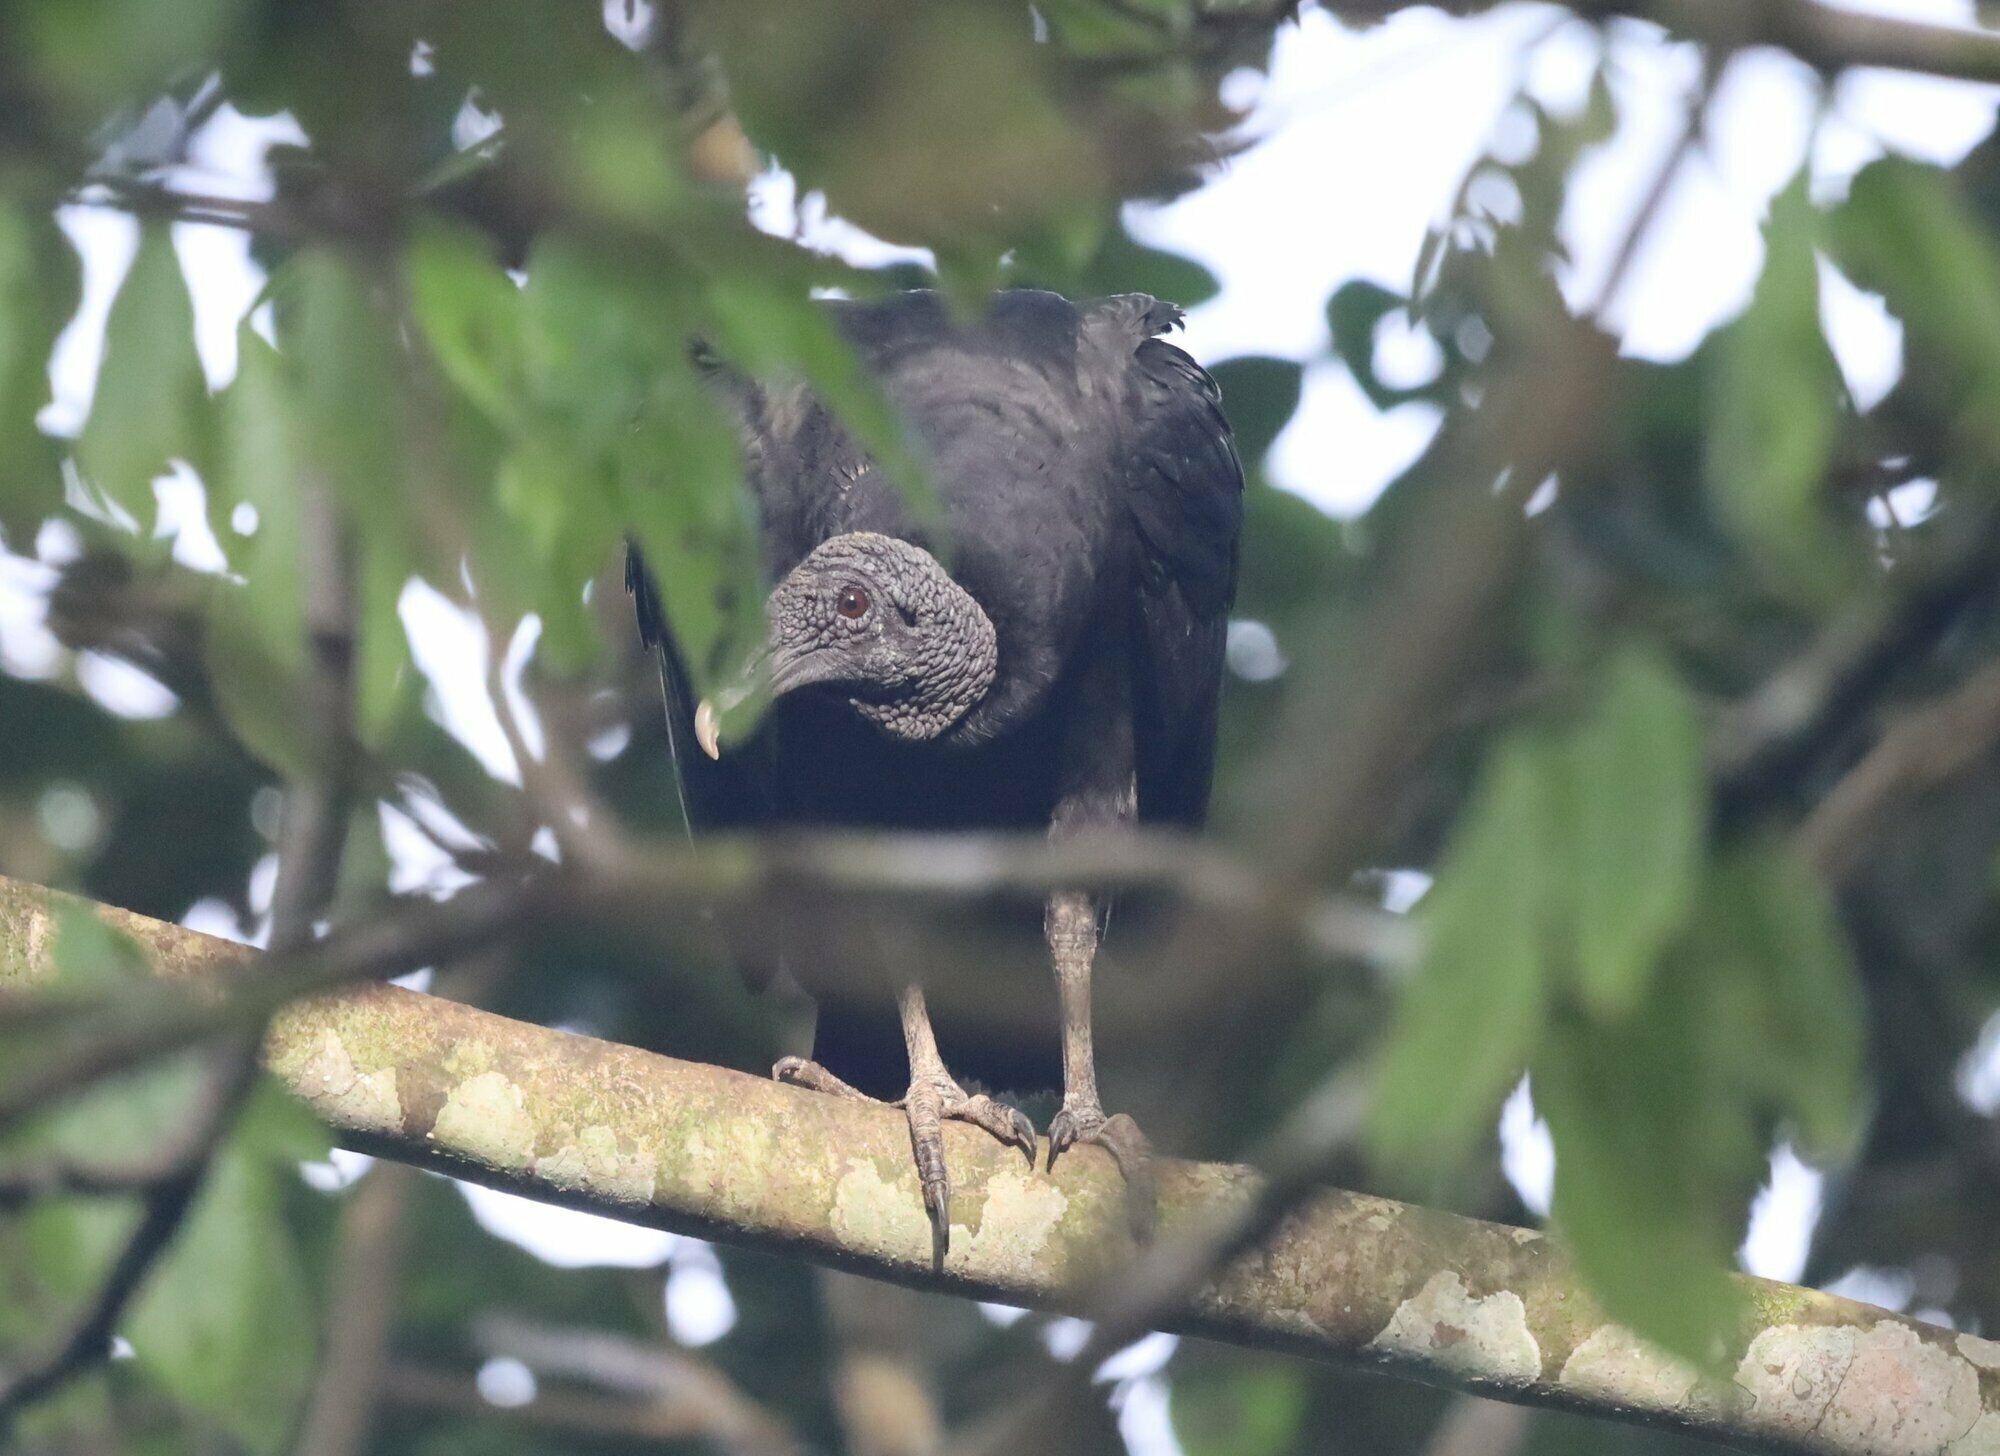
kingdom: Animalia
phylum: Chordata
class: Aves
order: Accipitriformes
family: Cathartidae
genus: Coragyps
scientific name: Coragyps atratus
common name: Black vulture
